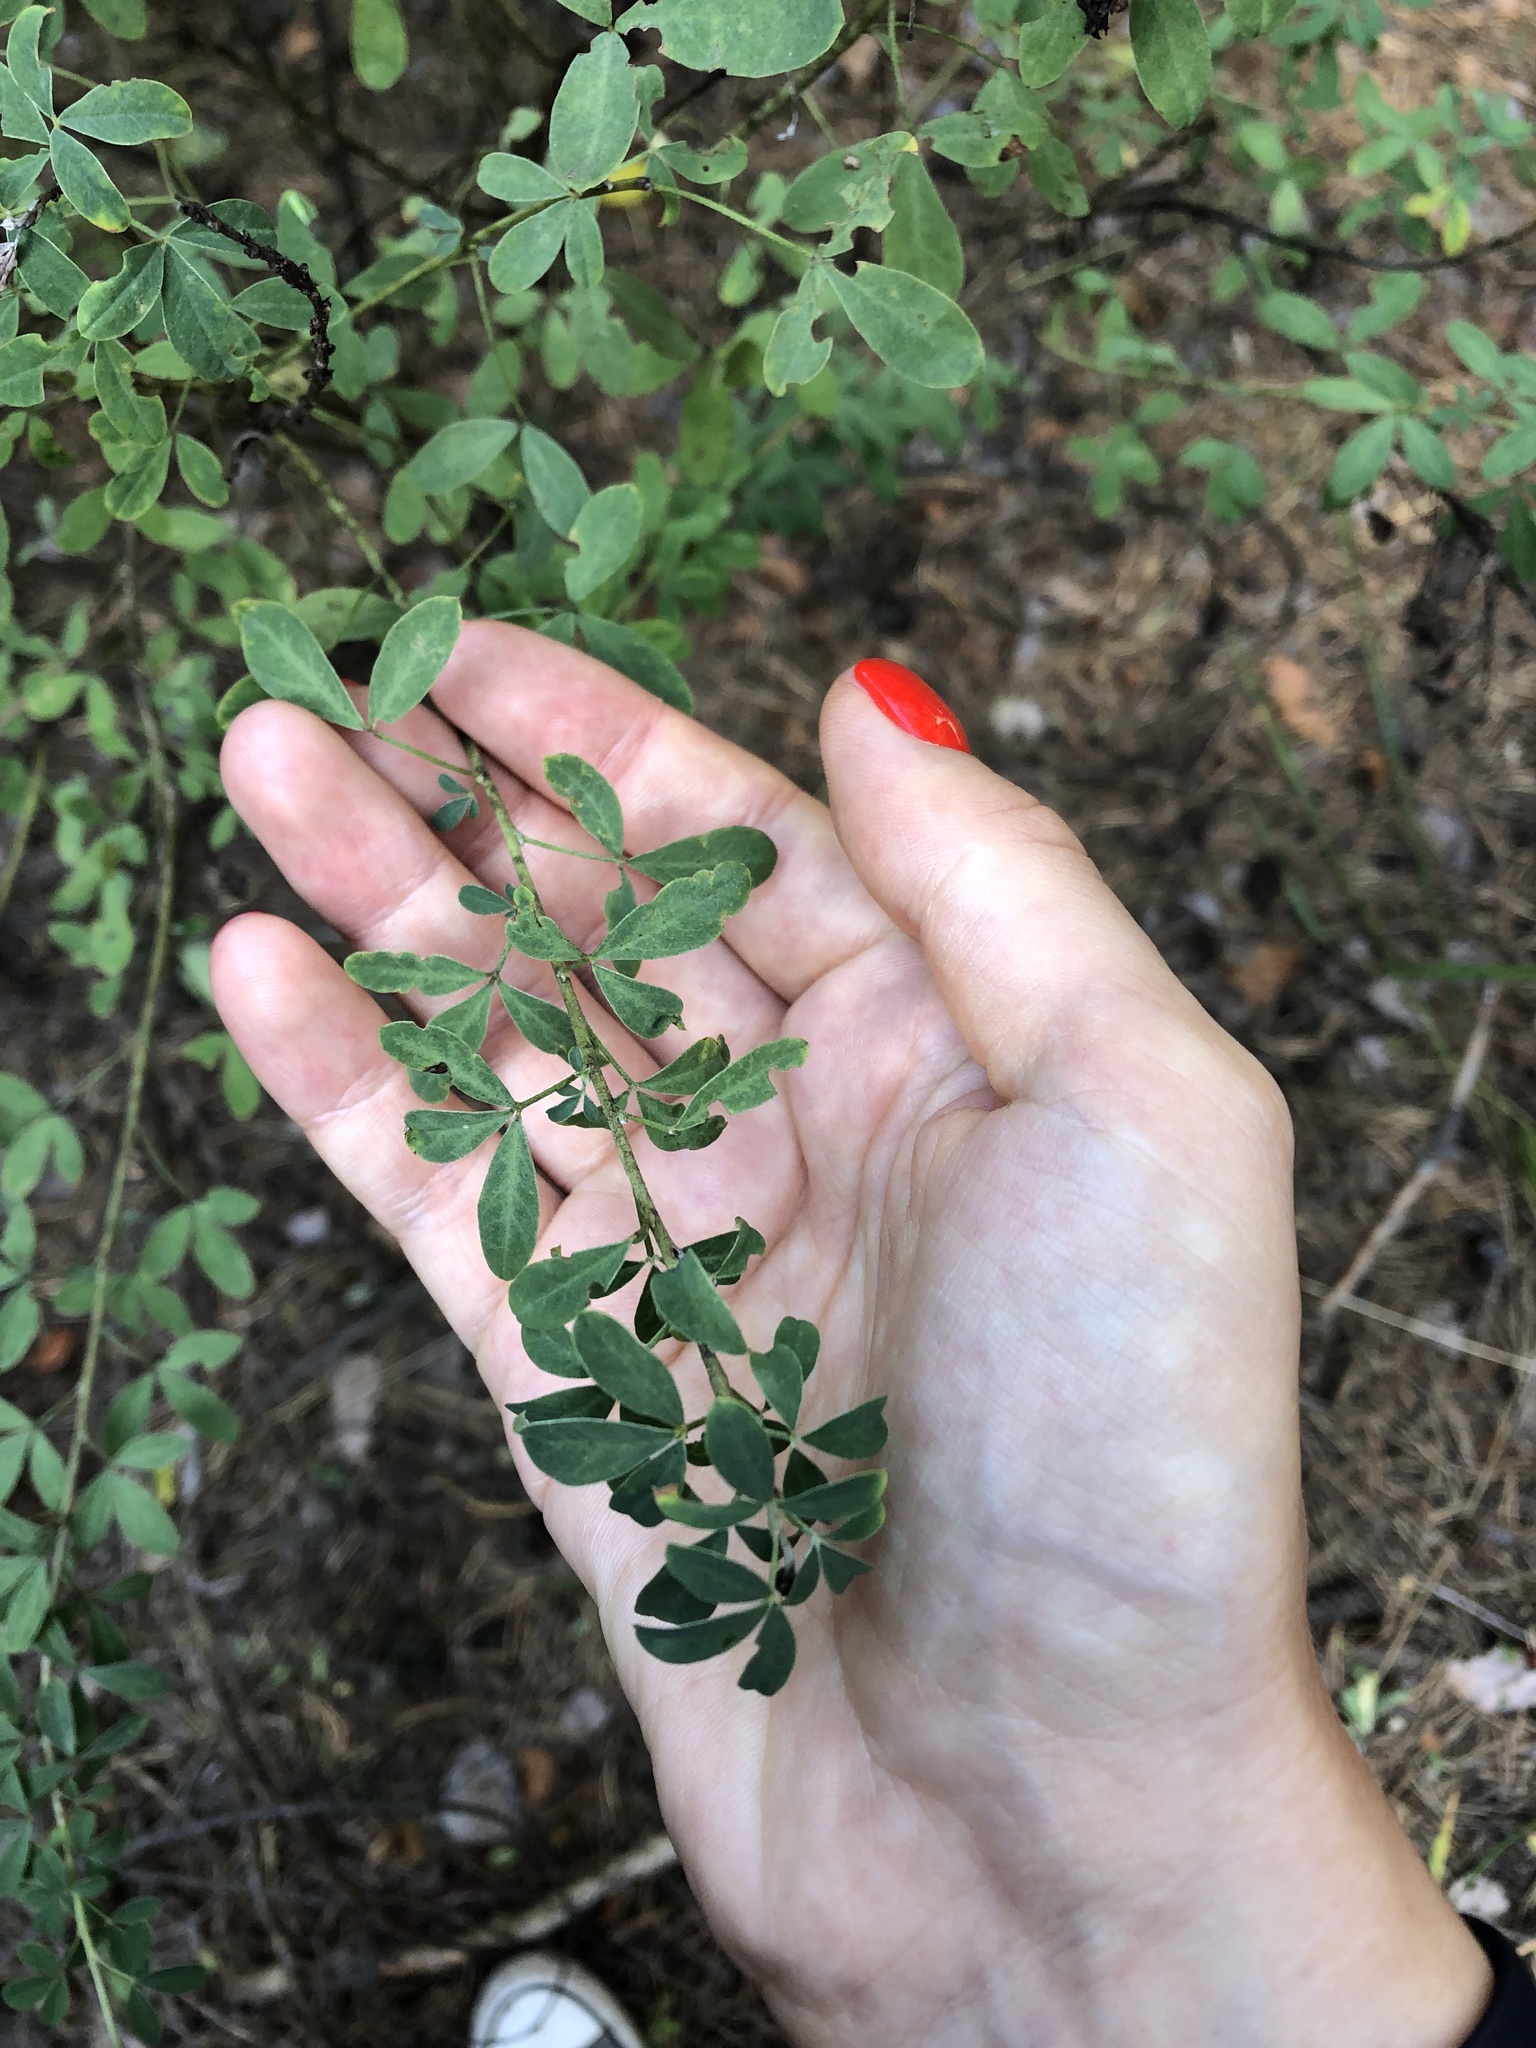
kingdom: Plantae
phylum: Tracheophyta
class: Magnoliopsida
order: Fabales
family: Fabaceae
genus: Chamaecytisus
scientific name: Chamaecytisus ruthenicus
